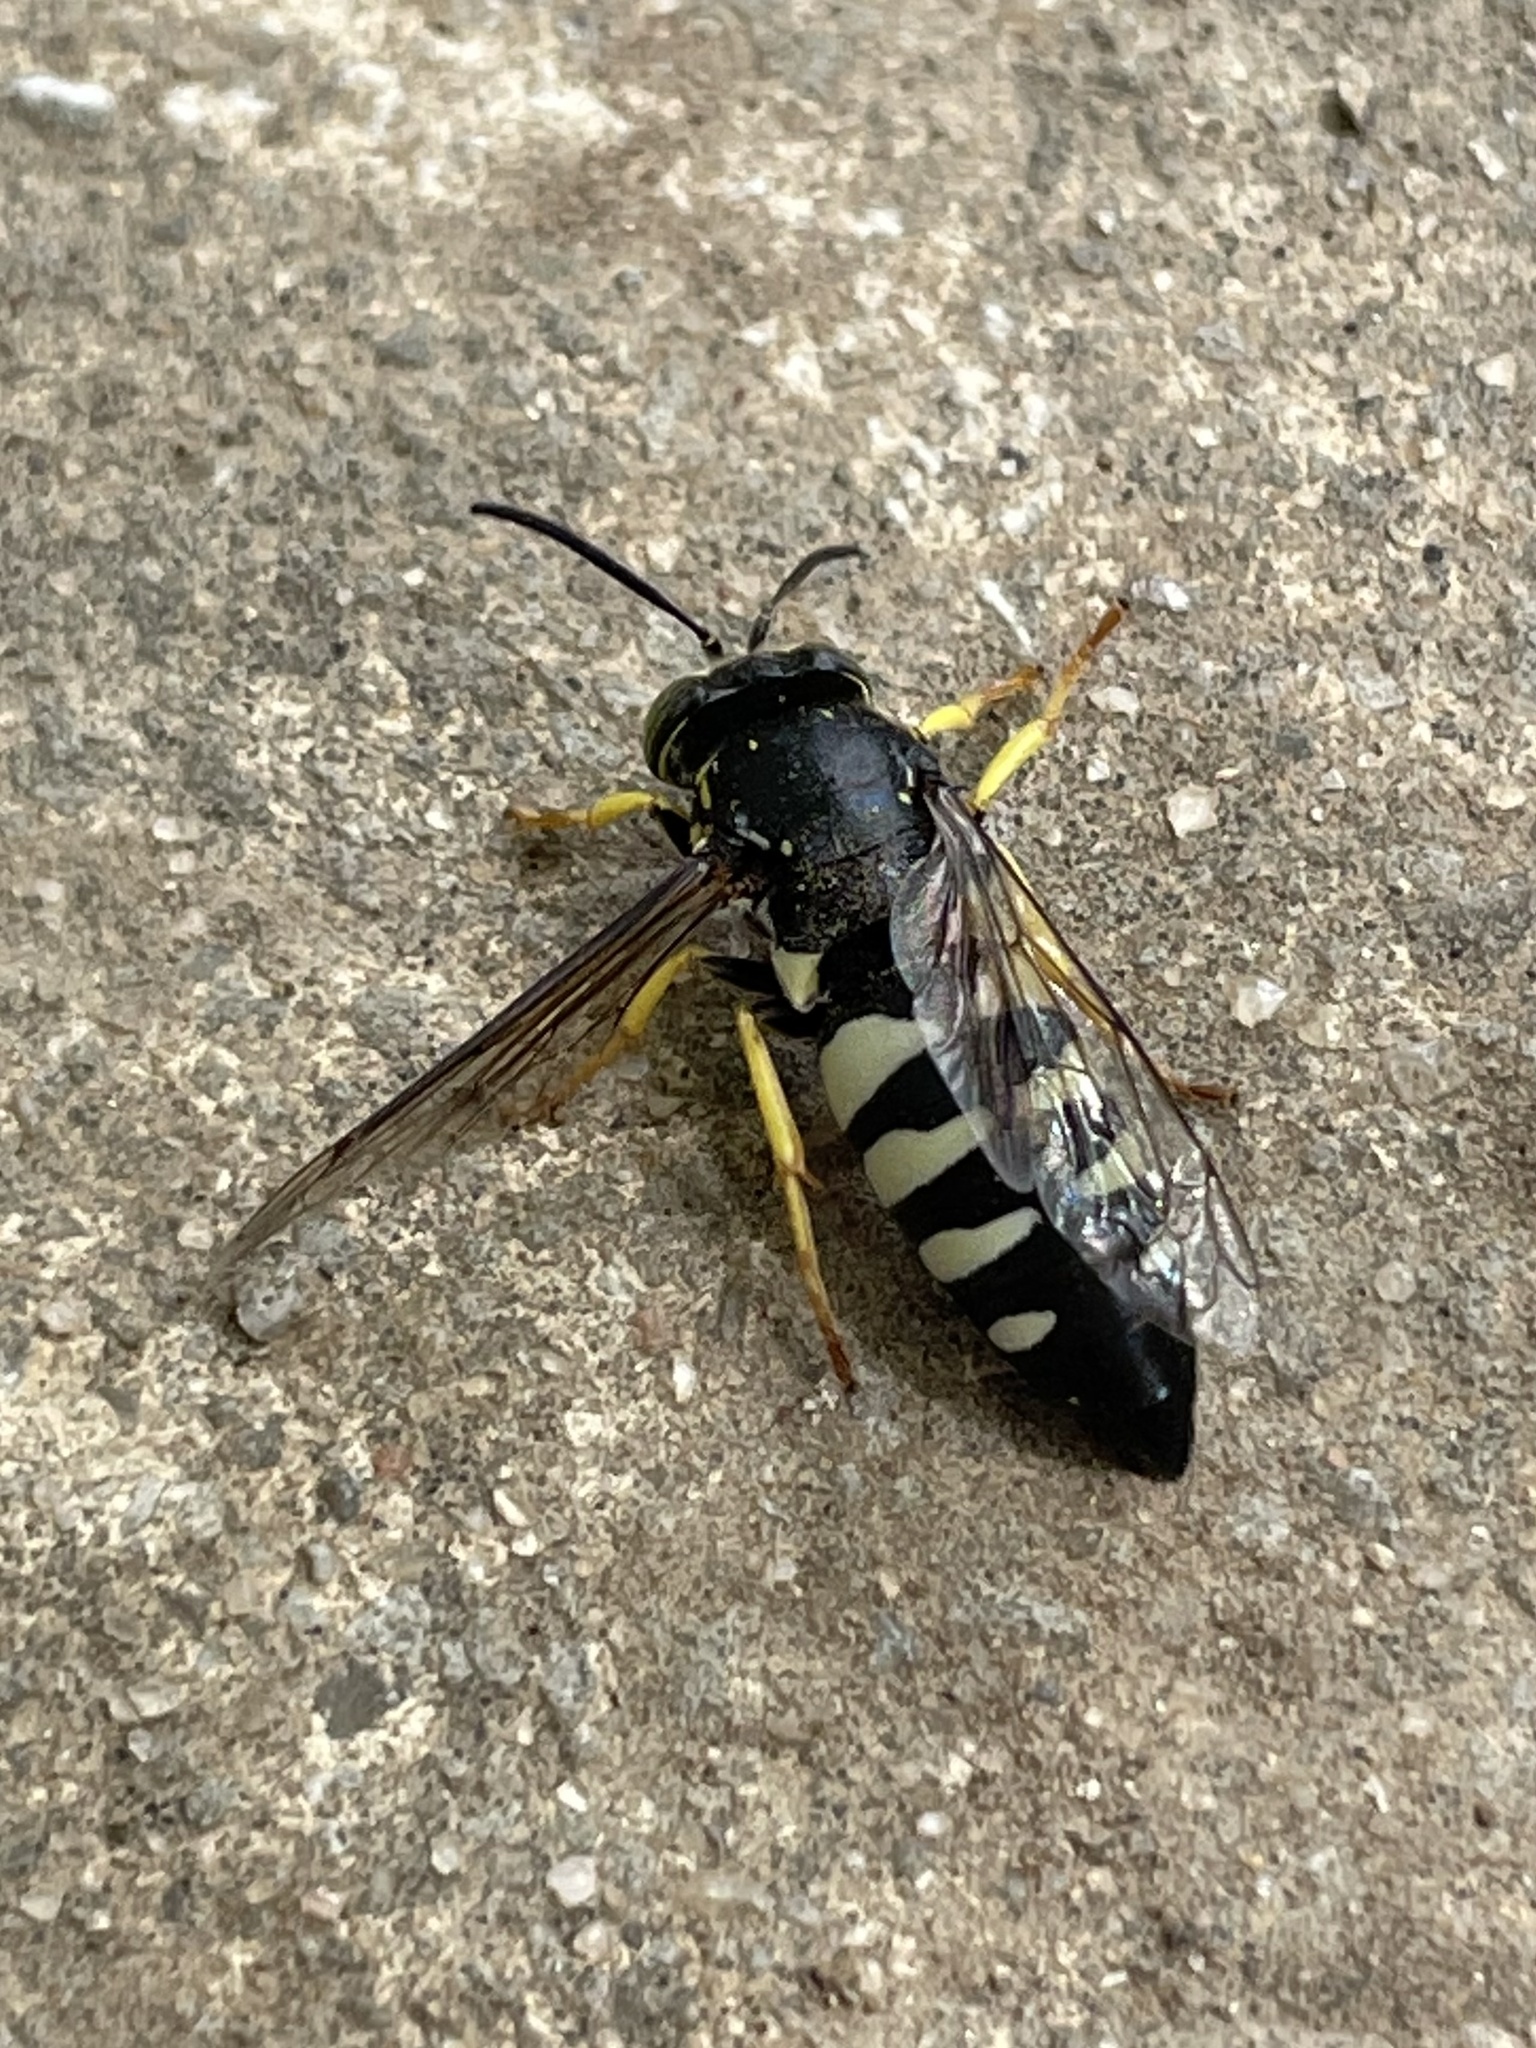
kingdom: Animalia
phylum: Arthropoda
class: Insecta
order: Hymenoptera
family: Crabronidae
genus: Bicyrtes
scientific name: Bicyrtes quadrifasciatus
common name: Four-banded stink bug hunter wasp
